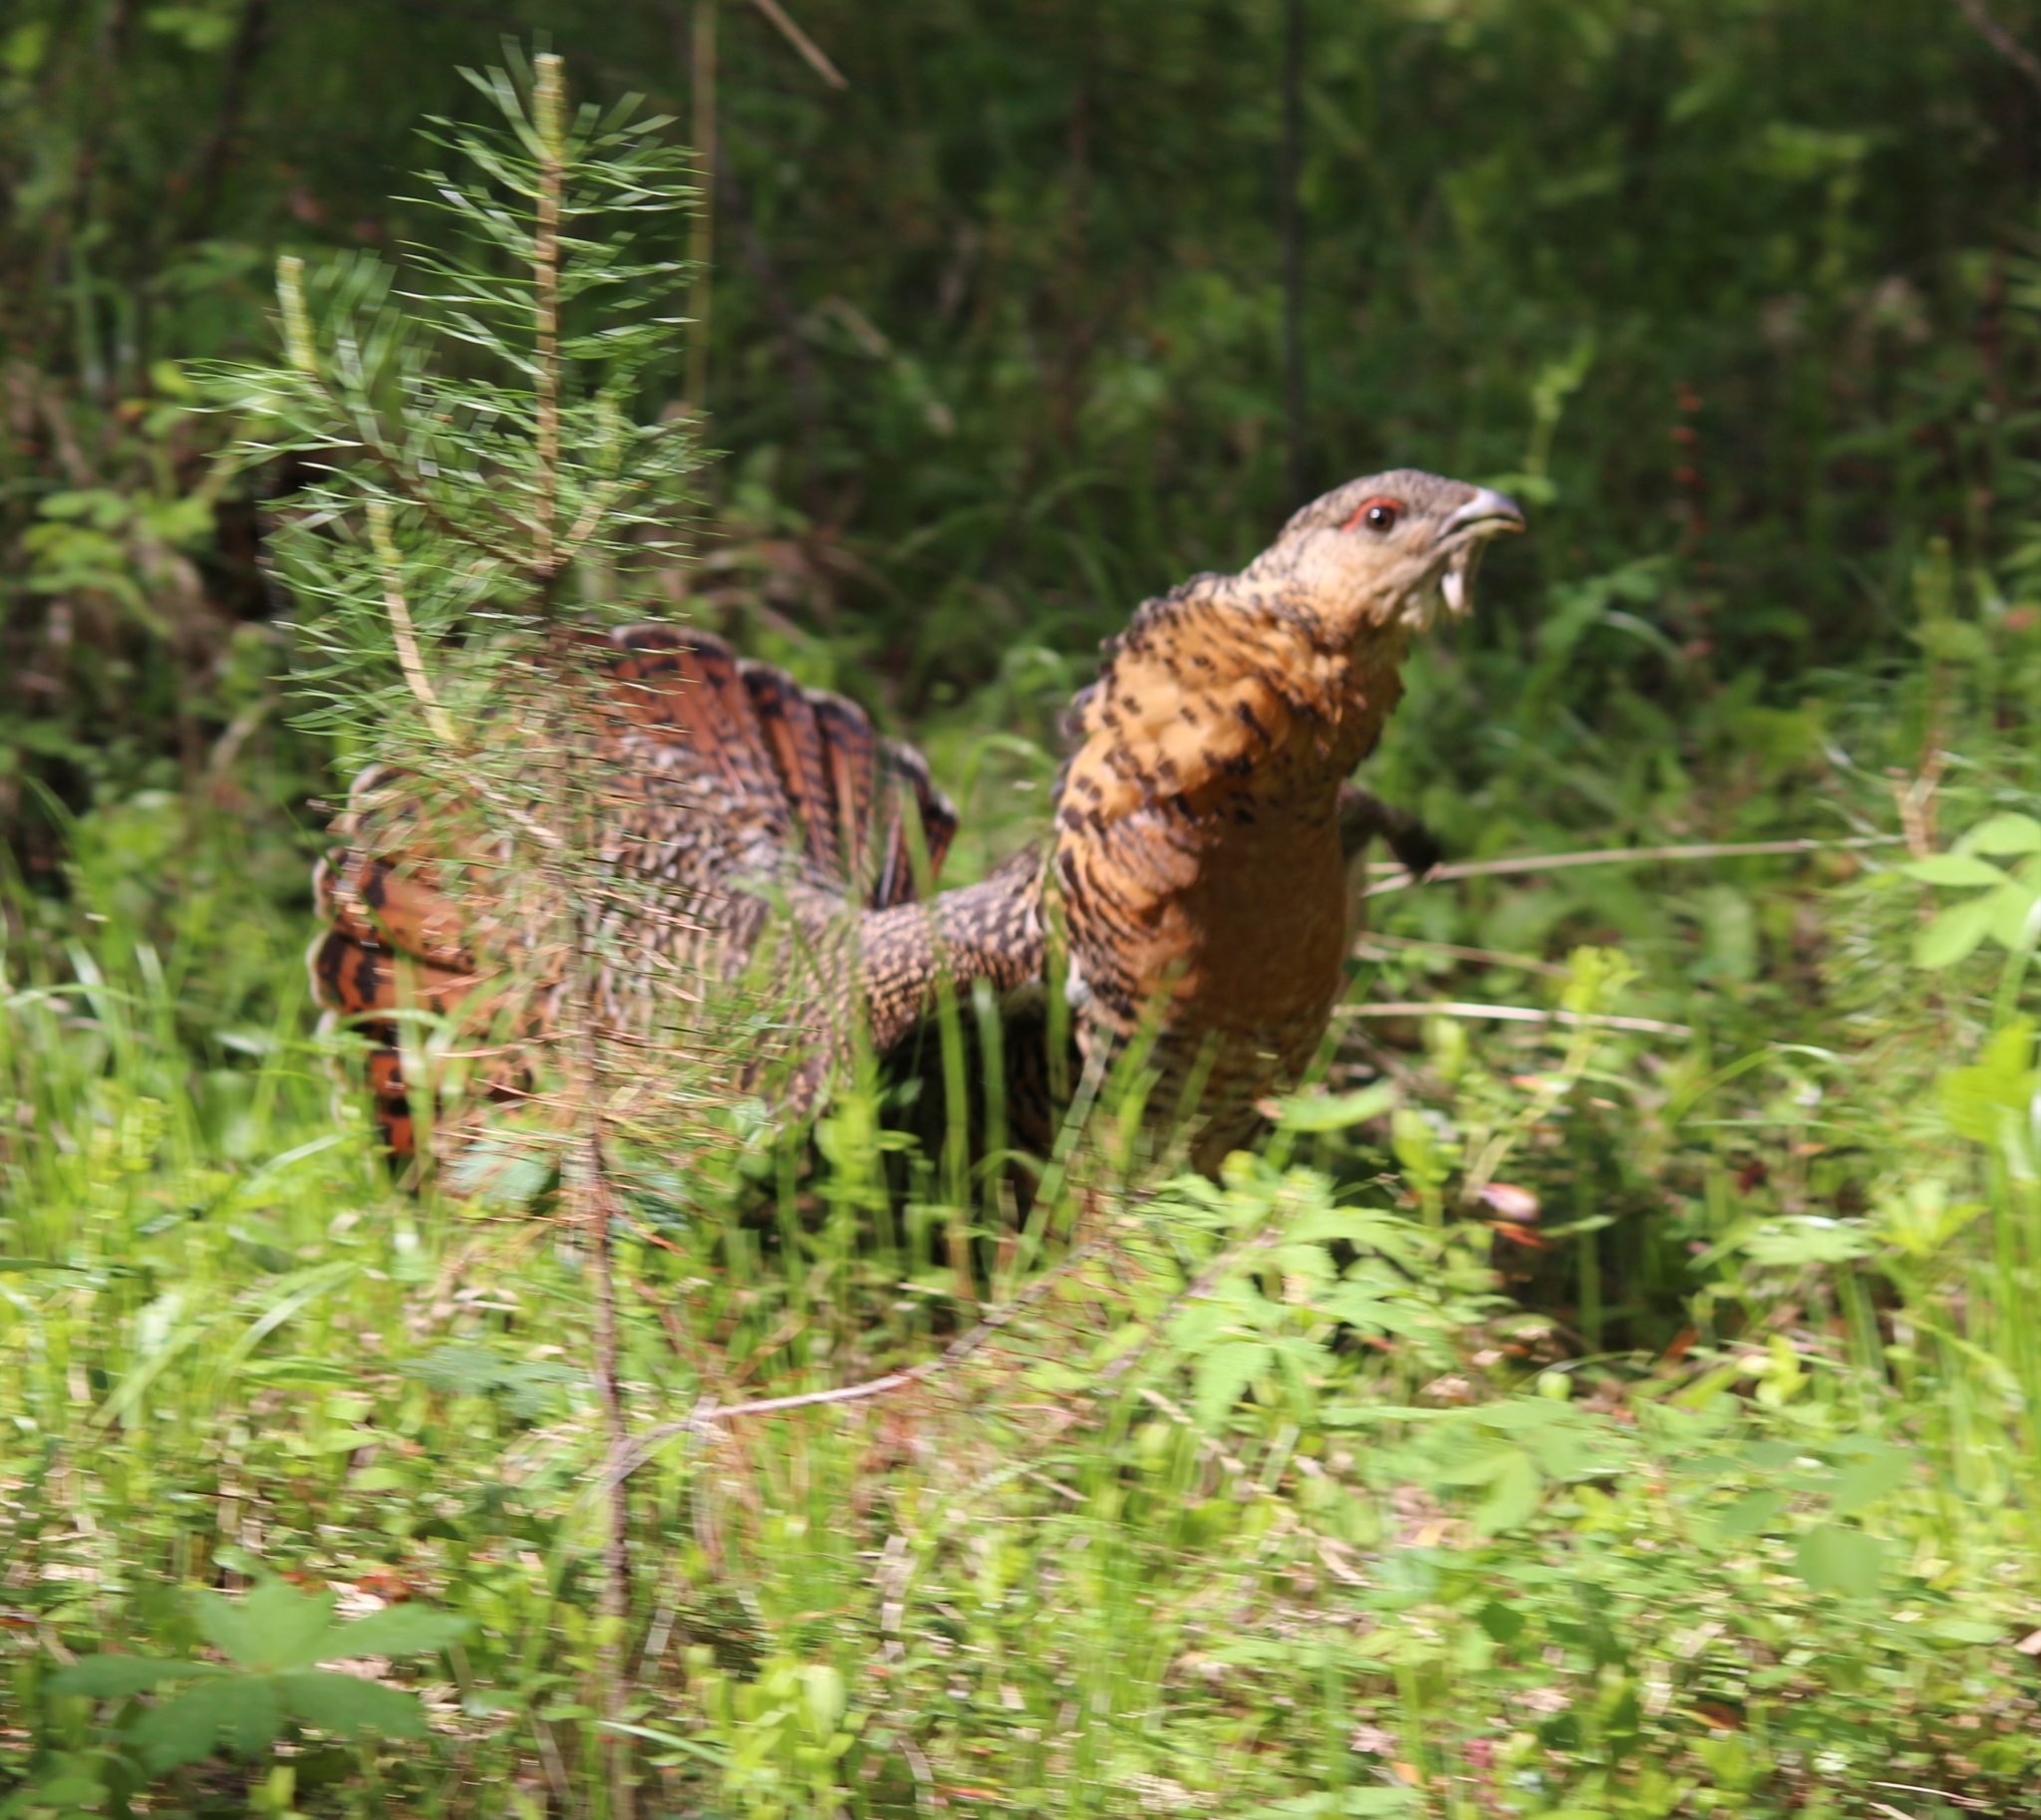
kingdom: Animalia
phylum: Chordata
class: Aves
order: Galliformes
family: Phasianidae
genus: Tetrao
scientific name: Tetrao urogallus
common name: Western capercaillie
